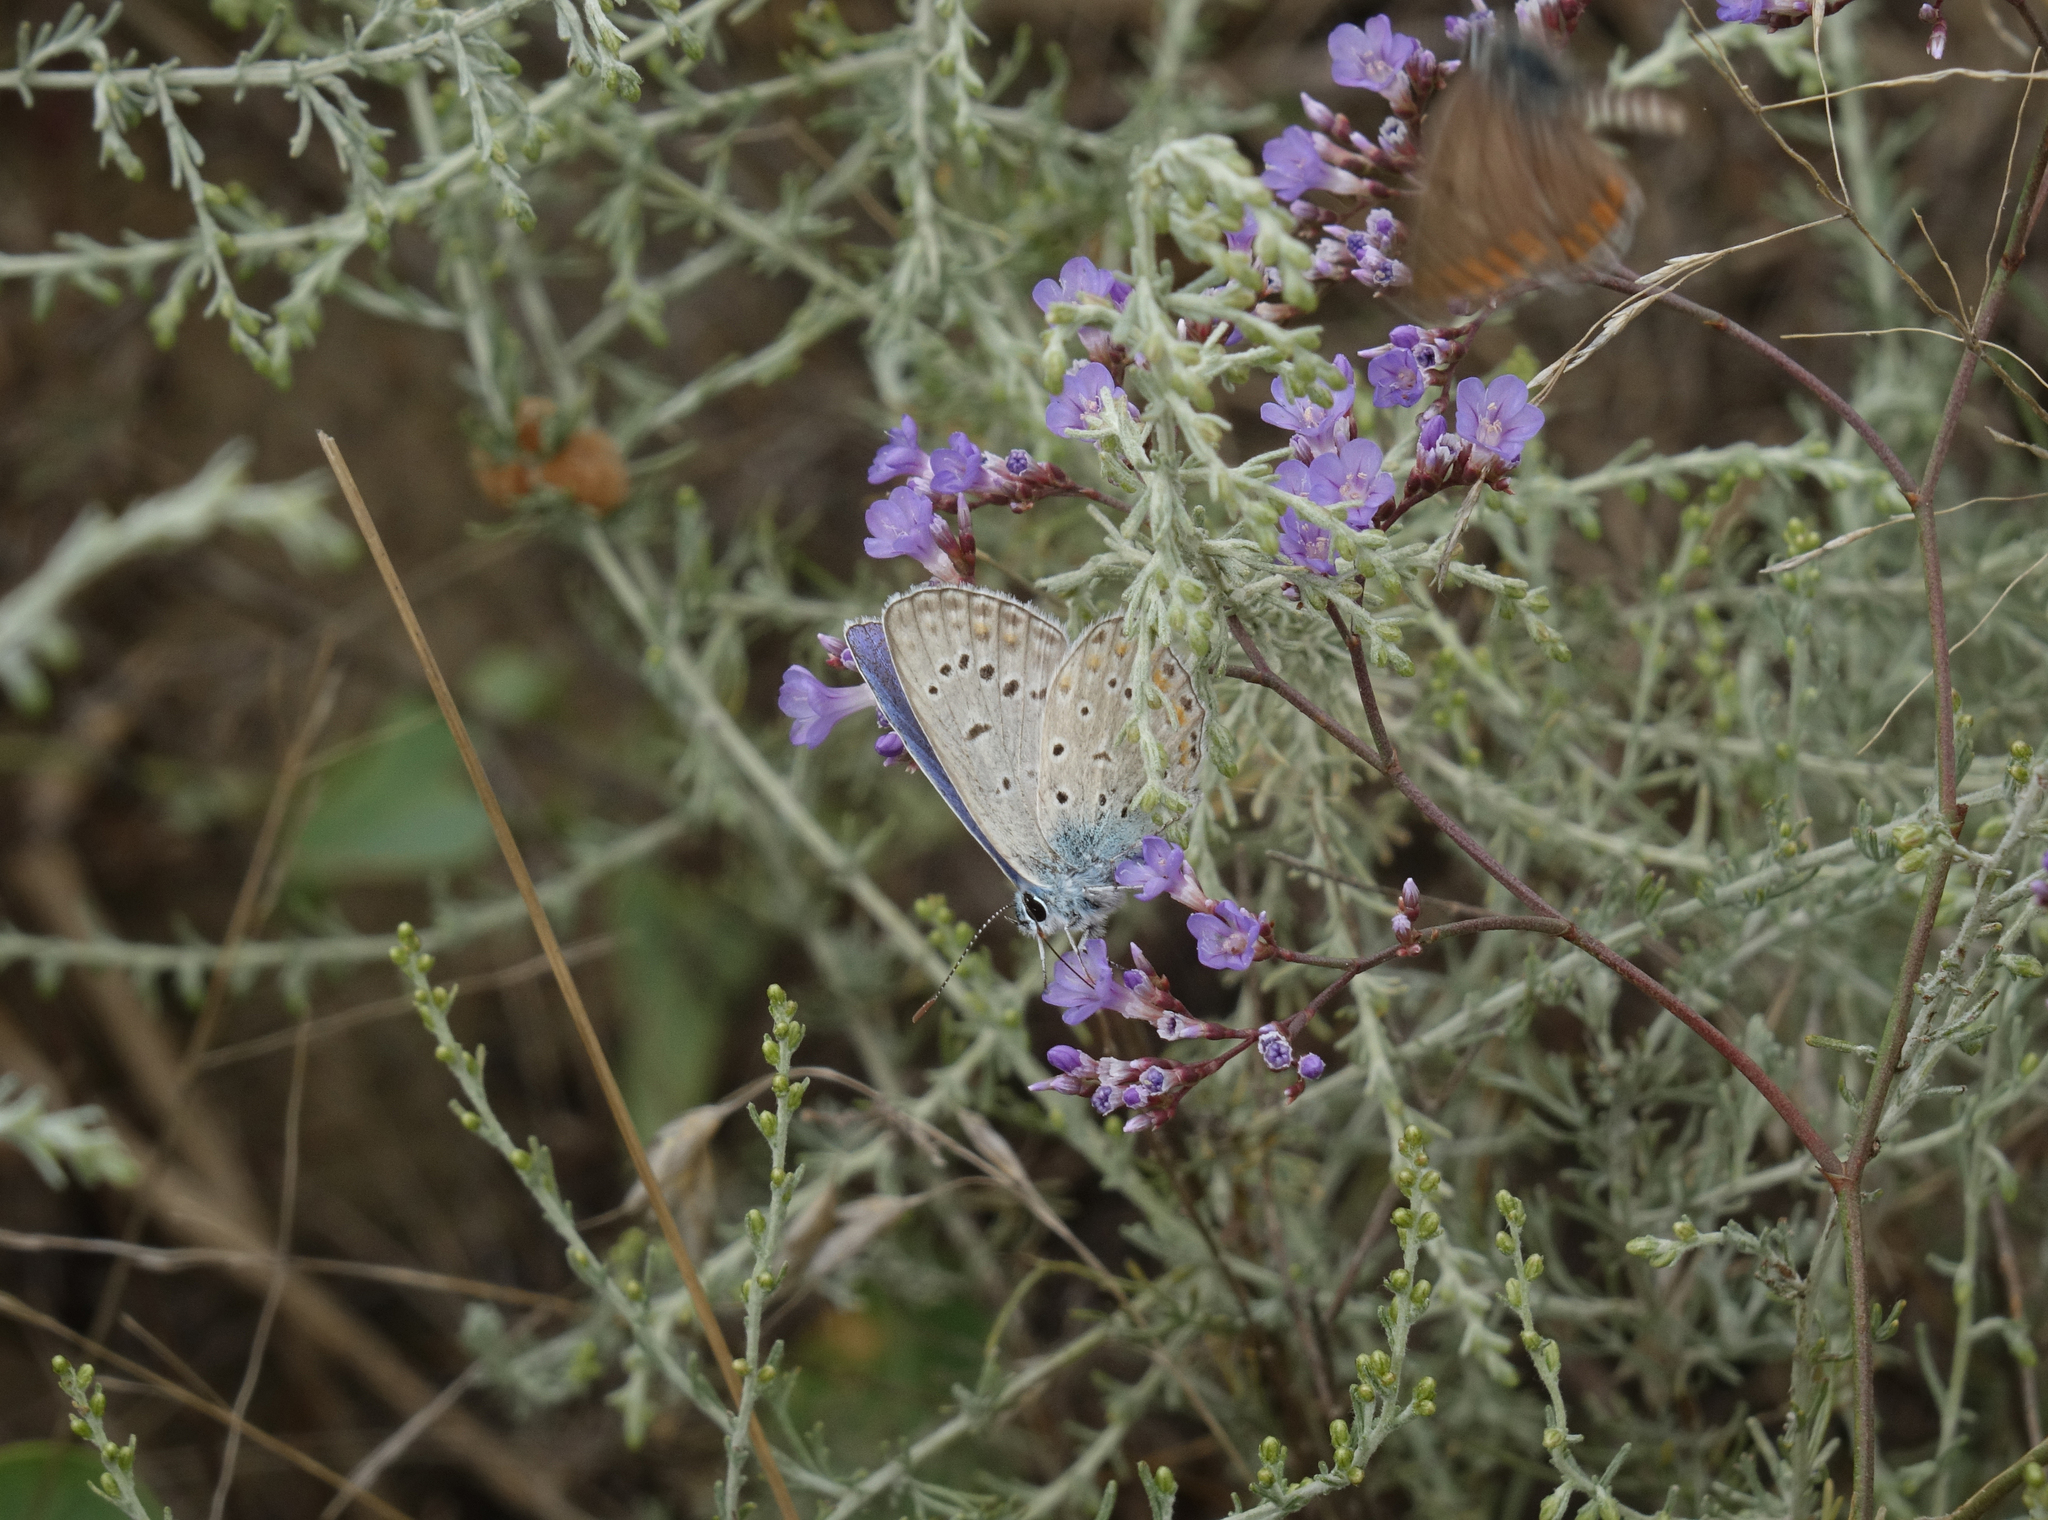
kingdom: Animalia
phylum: Arthropoda
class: Insecta
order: Lepidoptera
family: Lycaenidae
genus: Polyommatus
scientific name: Polyommatus icarus
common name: Common blue
